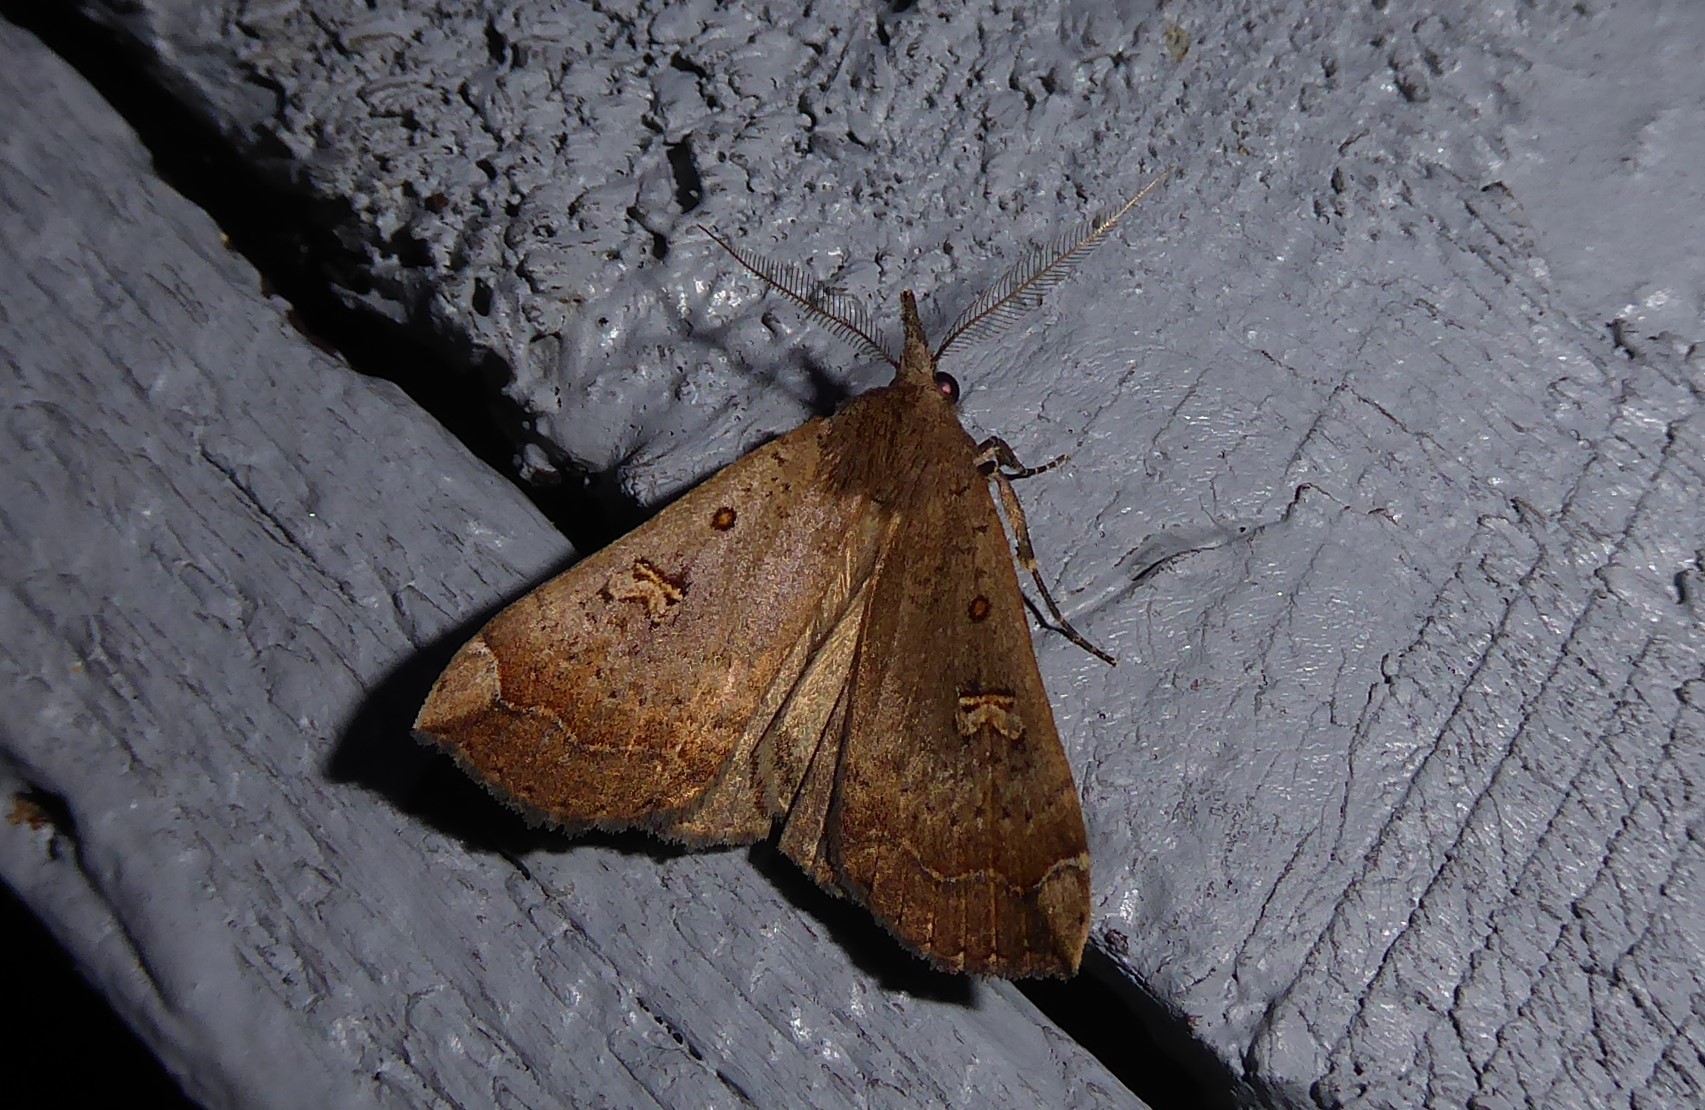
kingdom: Animalia
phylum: Arthropoda
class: Insecta
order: Lepidoptera
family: Erebidae
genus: Rhapsa
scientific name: Rhapsa scotosialis
